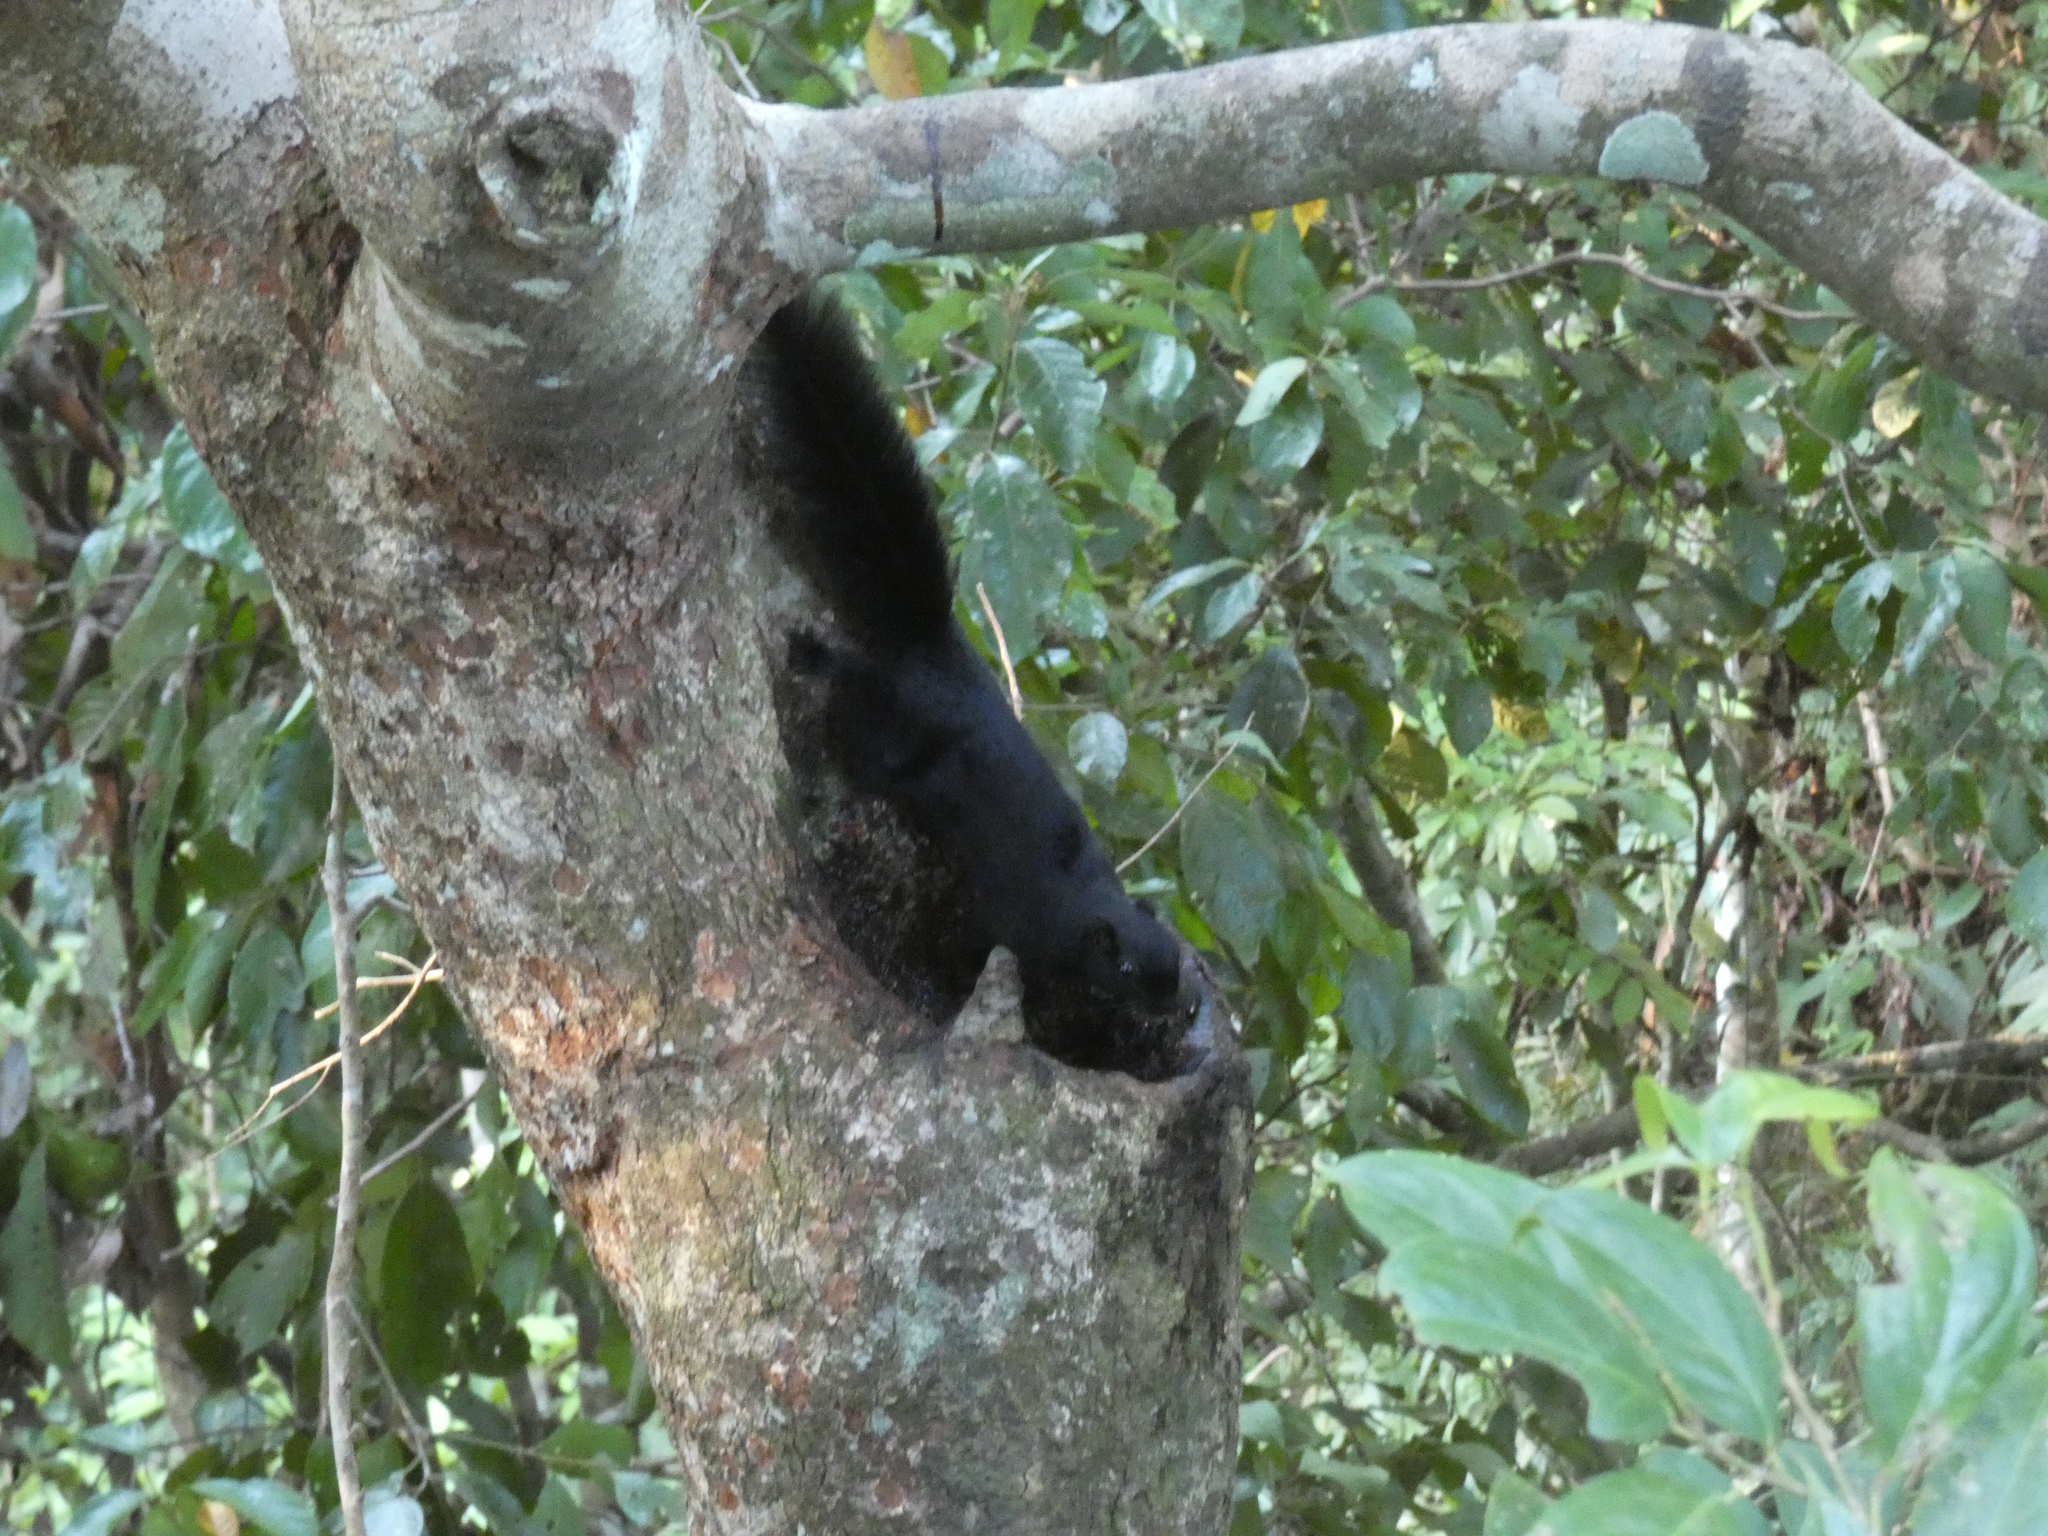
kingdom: Animalia
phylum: Chordata
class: Mammalia
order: Rodentia
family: Sciuridae
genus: Callosciurus
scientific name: Callosciurus prevostii
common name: Prevost's squirrel
